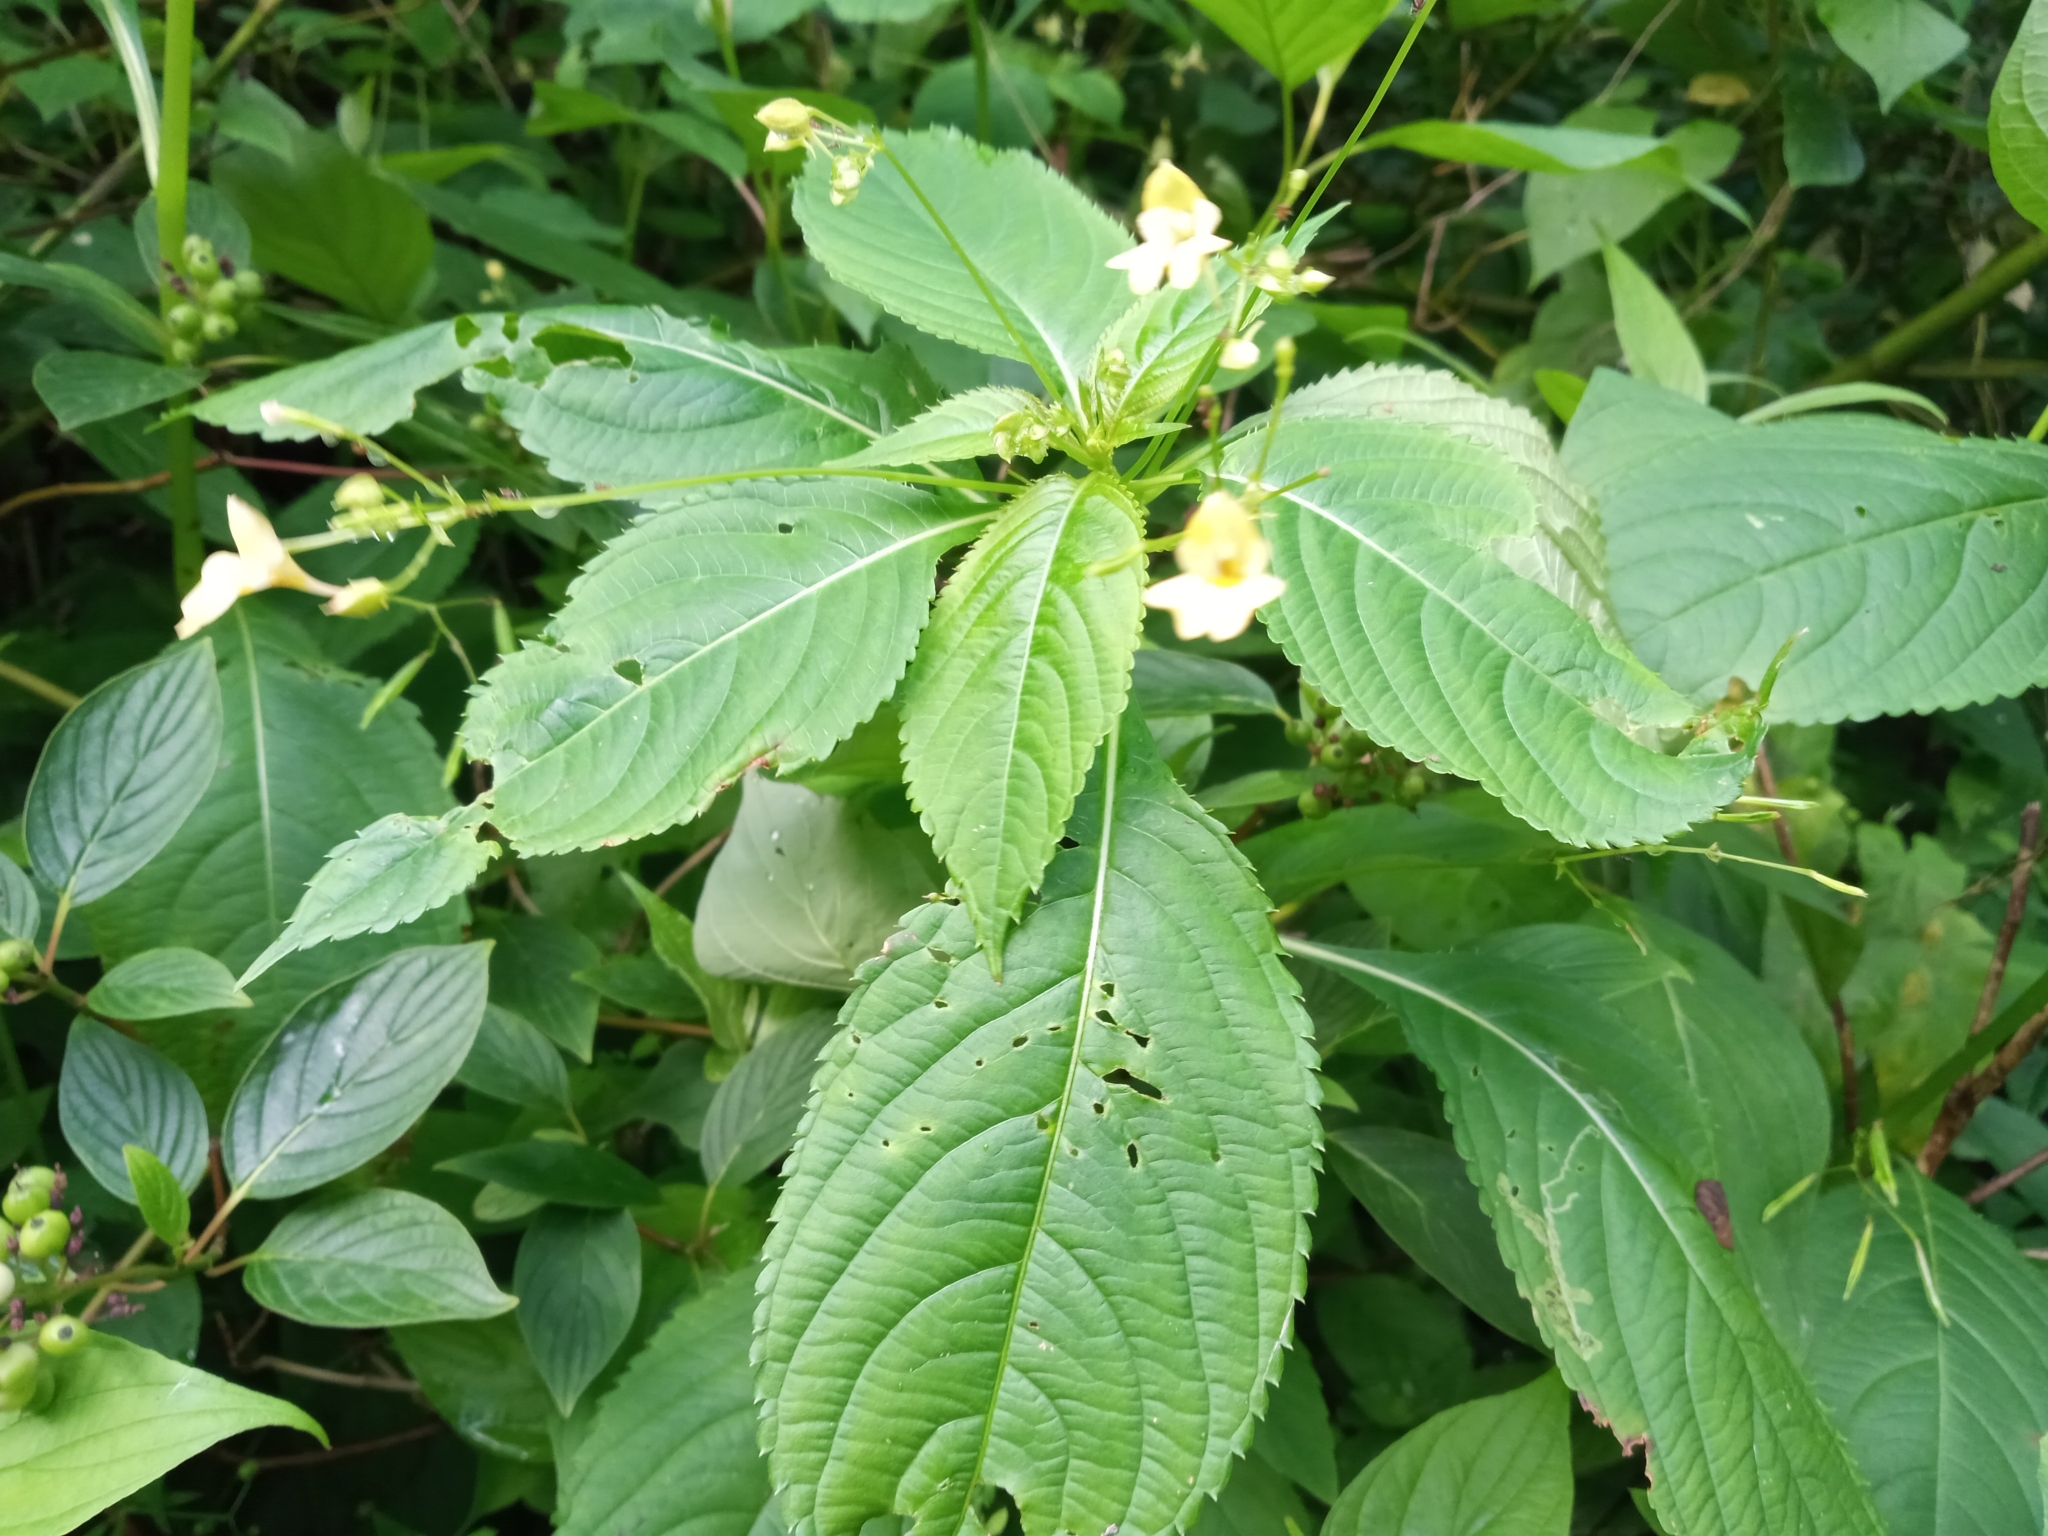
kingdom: Plantae
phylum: Tracheophyta
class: Magnoliopsida
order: Ericales
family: Balsaminaceae
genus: Impatiens
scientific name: Impatiens parviflora
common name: Small balsam
